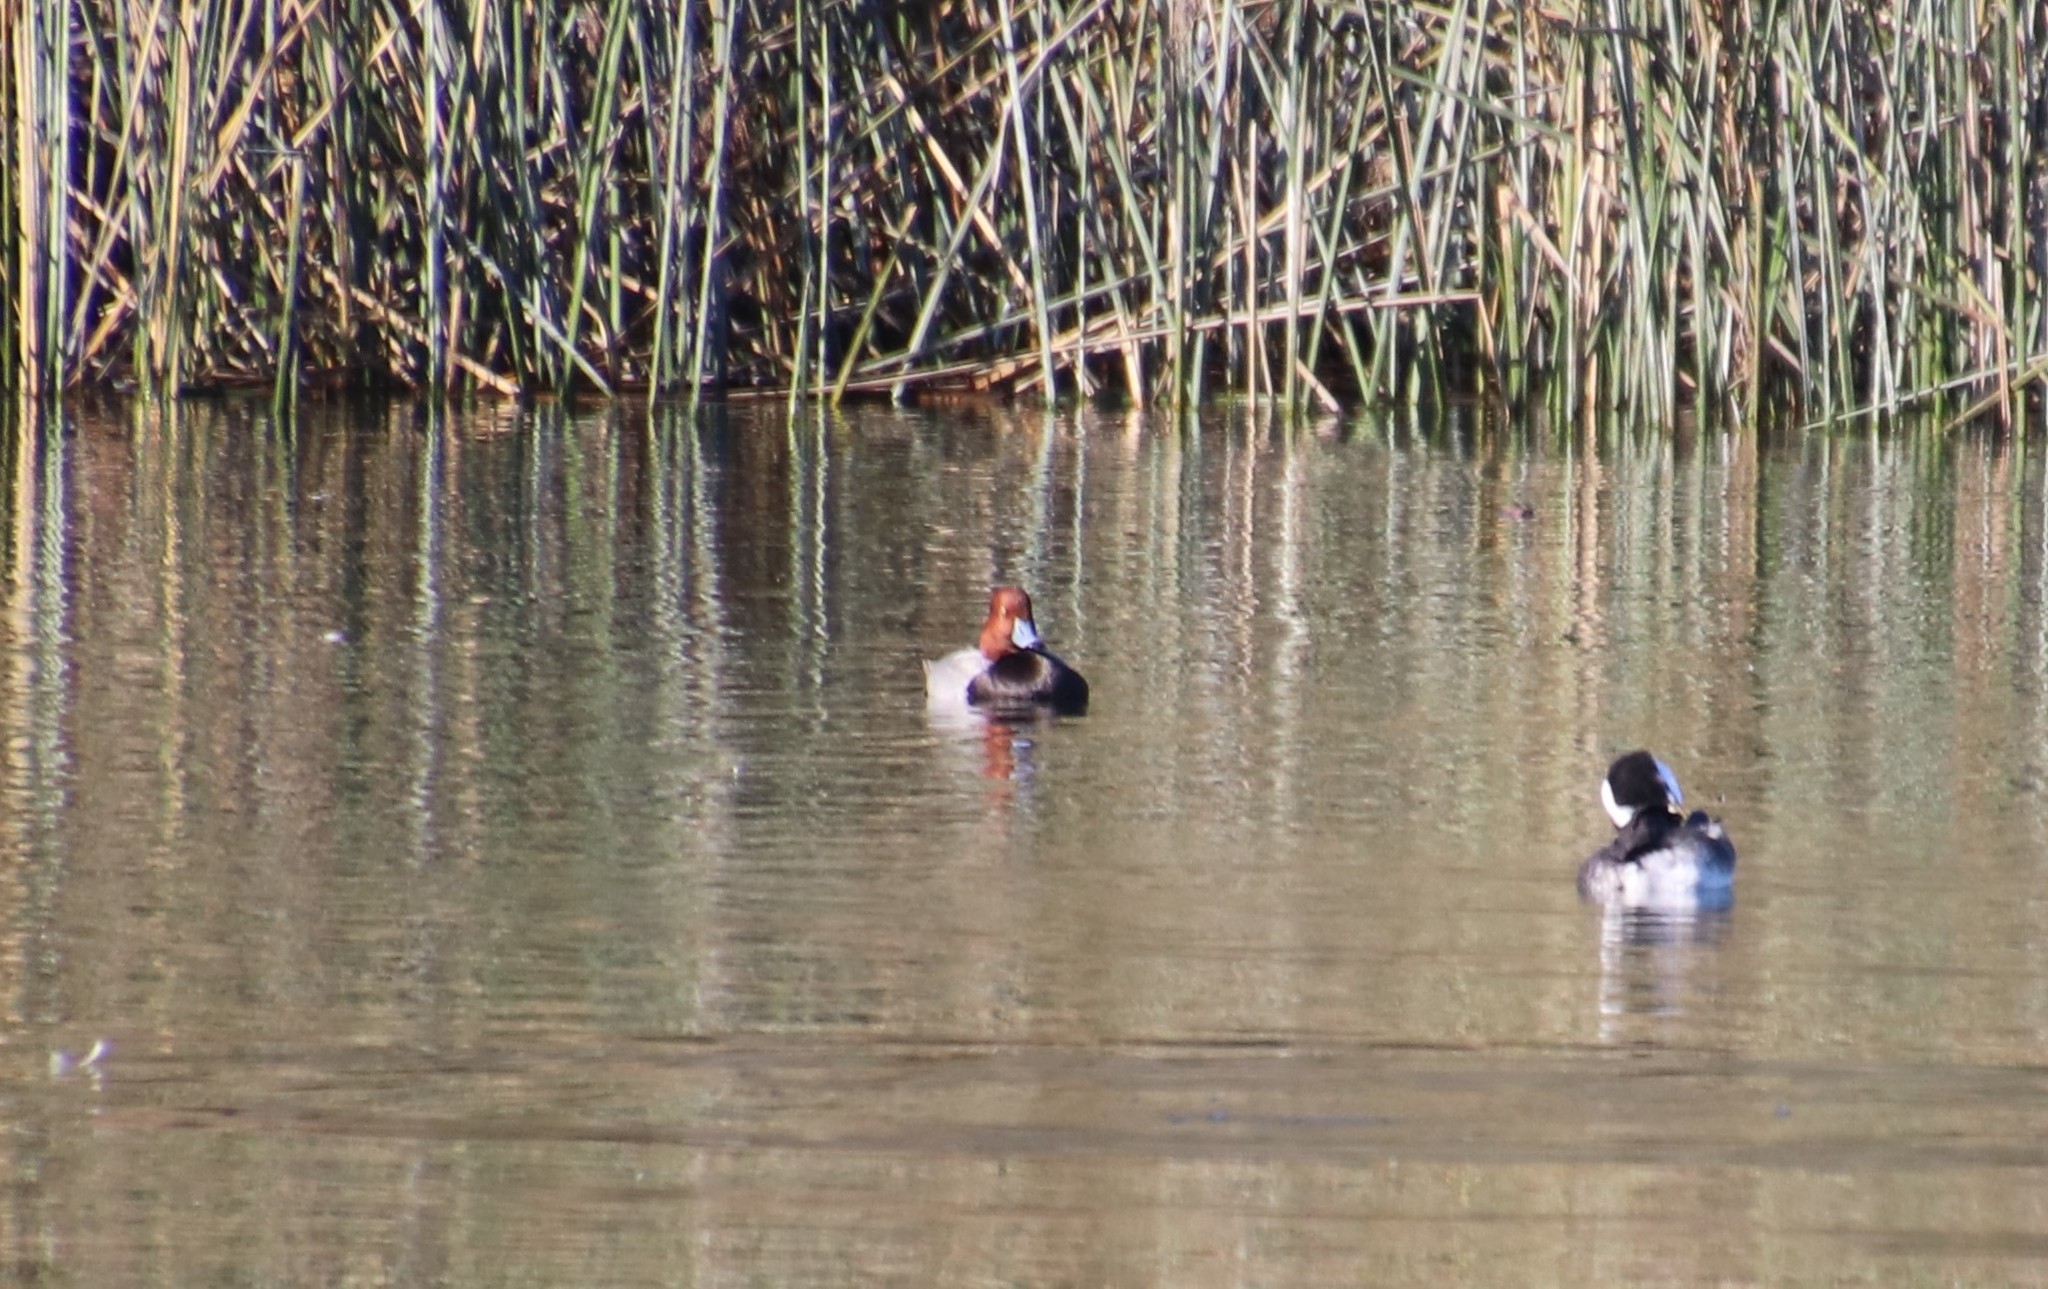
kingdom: Animalia
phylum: Chordata
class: Aves
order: Anseriformes
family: Anatidae
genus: Aythya
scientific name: Aythya americana
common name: Redhead
